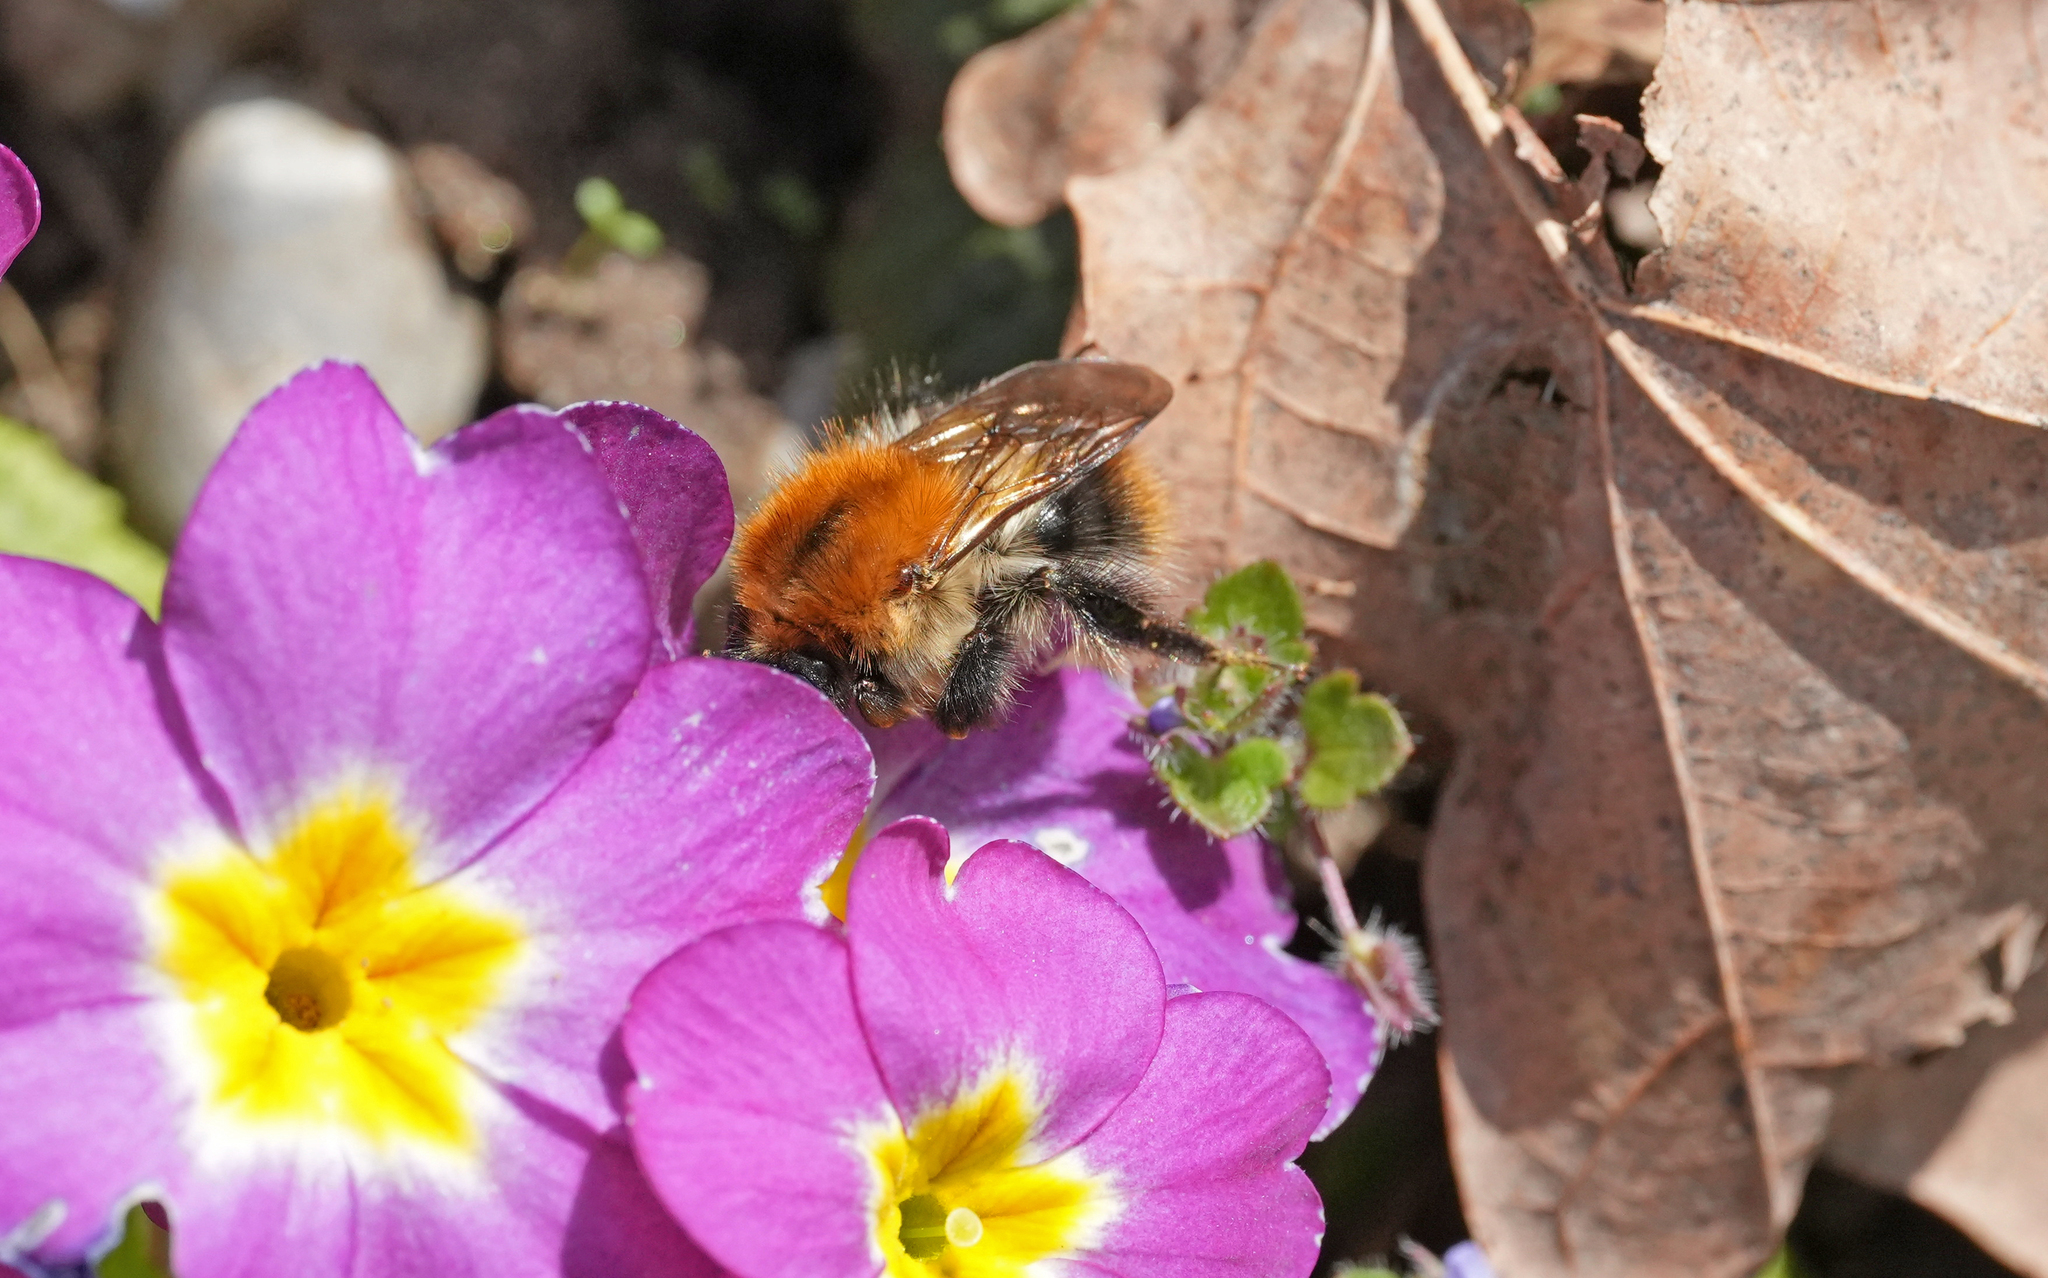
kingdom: Animalia
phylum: Arthropoda
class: Insecta
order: Hymenoptera
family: Apidae
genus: Bombus
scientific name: Bombus pascuorum
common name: Common carder bee
